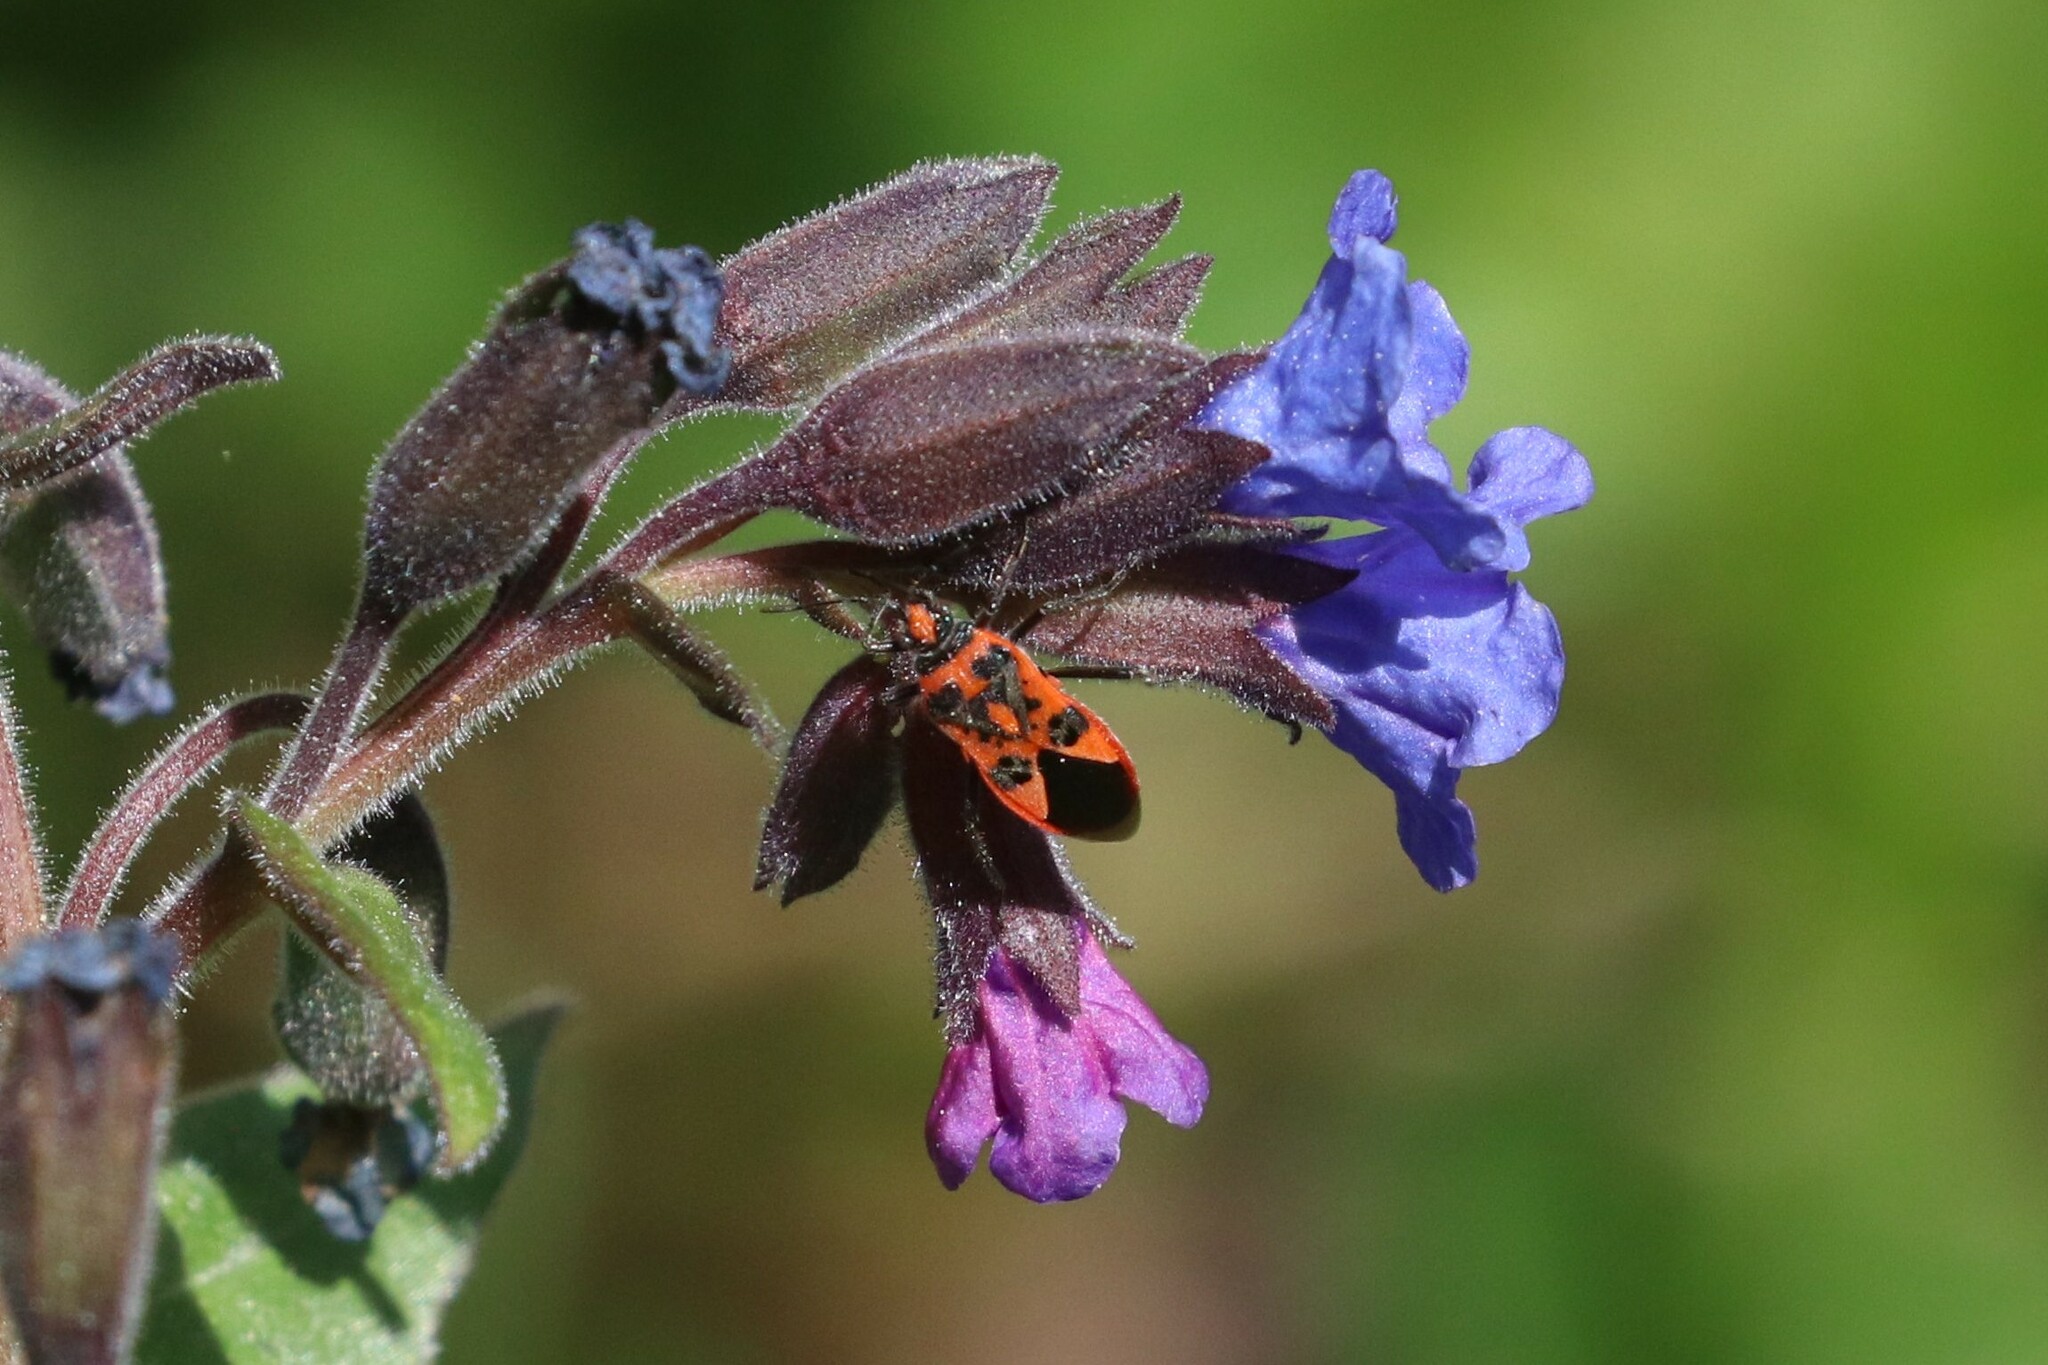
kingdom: Animalia
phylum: Arthropoda
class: Insecta
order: Hemiptera
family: Rhopalidae
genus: Corizus
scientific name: Corizus hyoscyami
